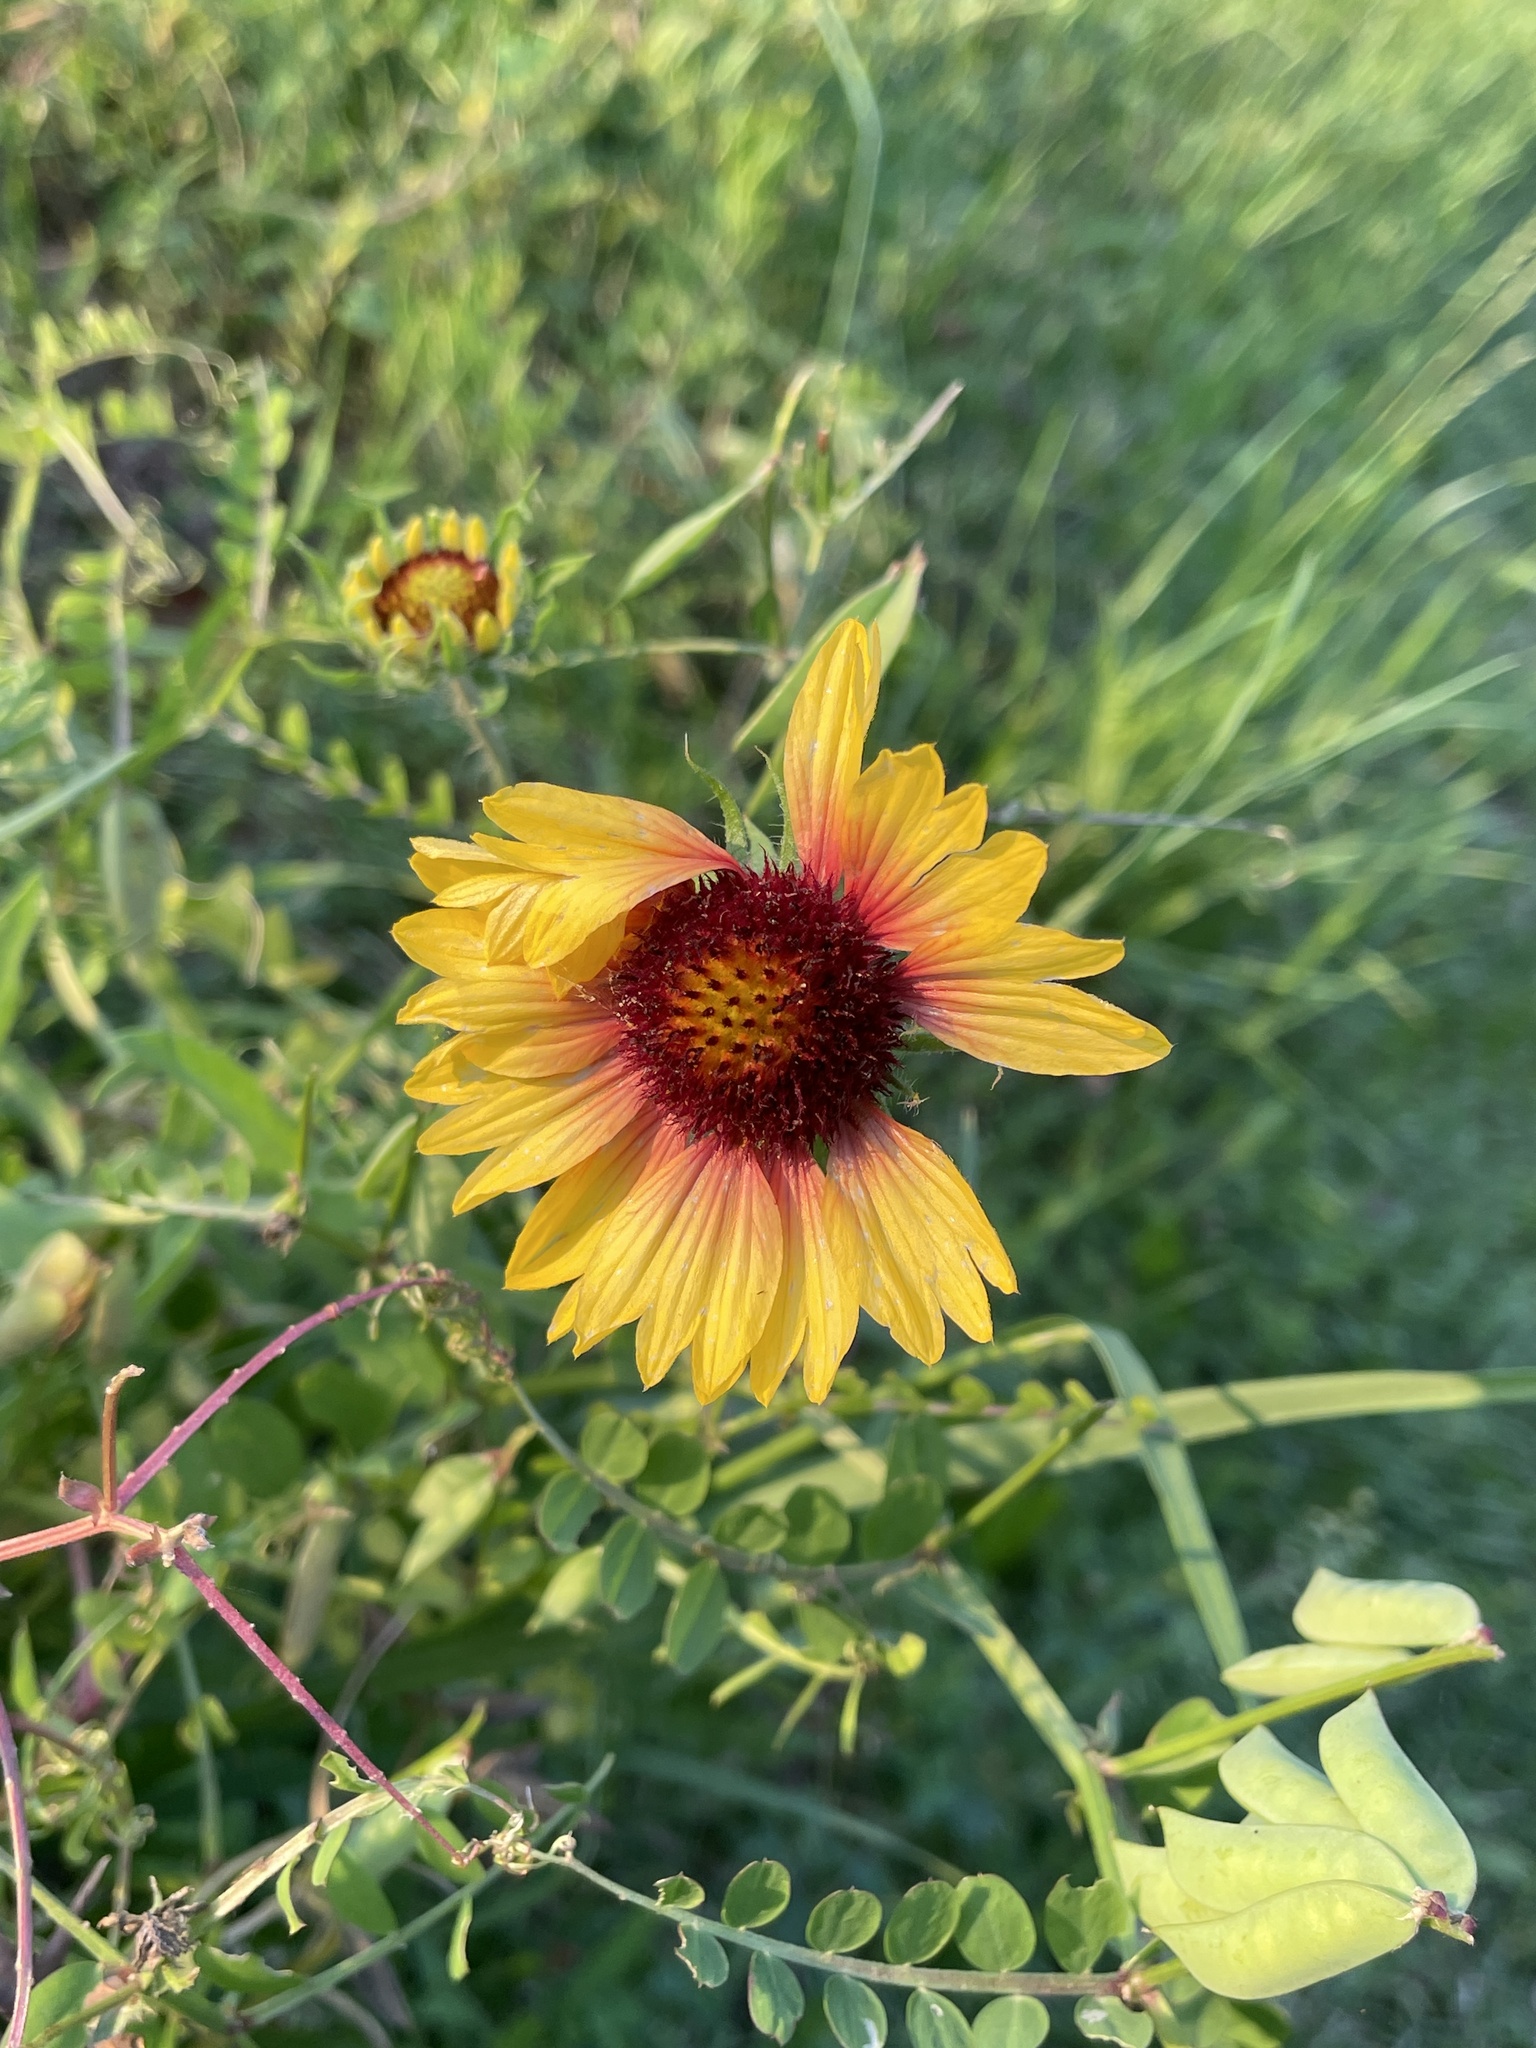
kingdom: Plantae
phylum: Tracheophyta
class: Magnoliopsida
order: Asterales
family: Asteraceae
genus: Gaillardia
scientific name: Gaillardia pulchella
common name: Firewheel
